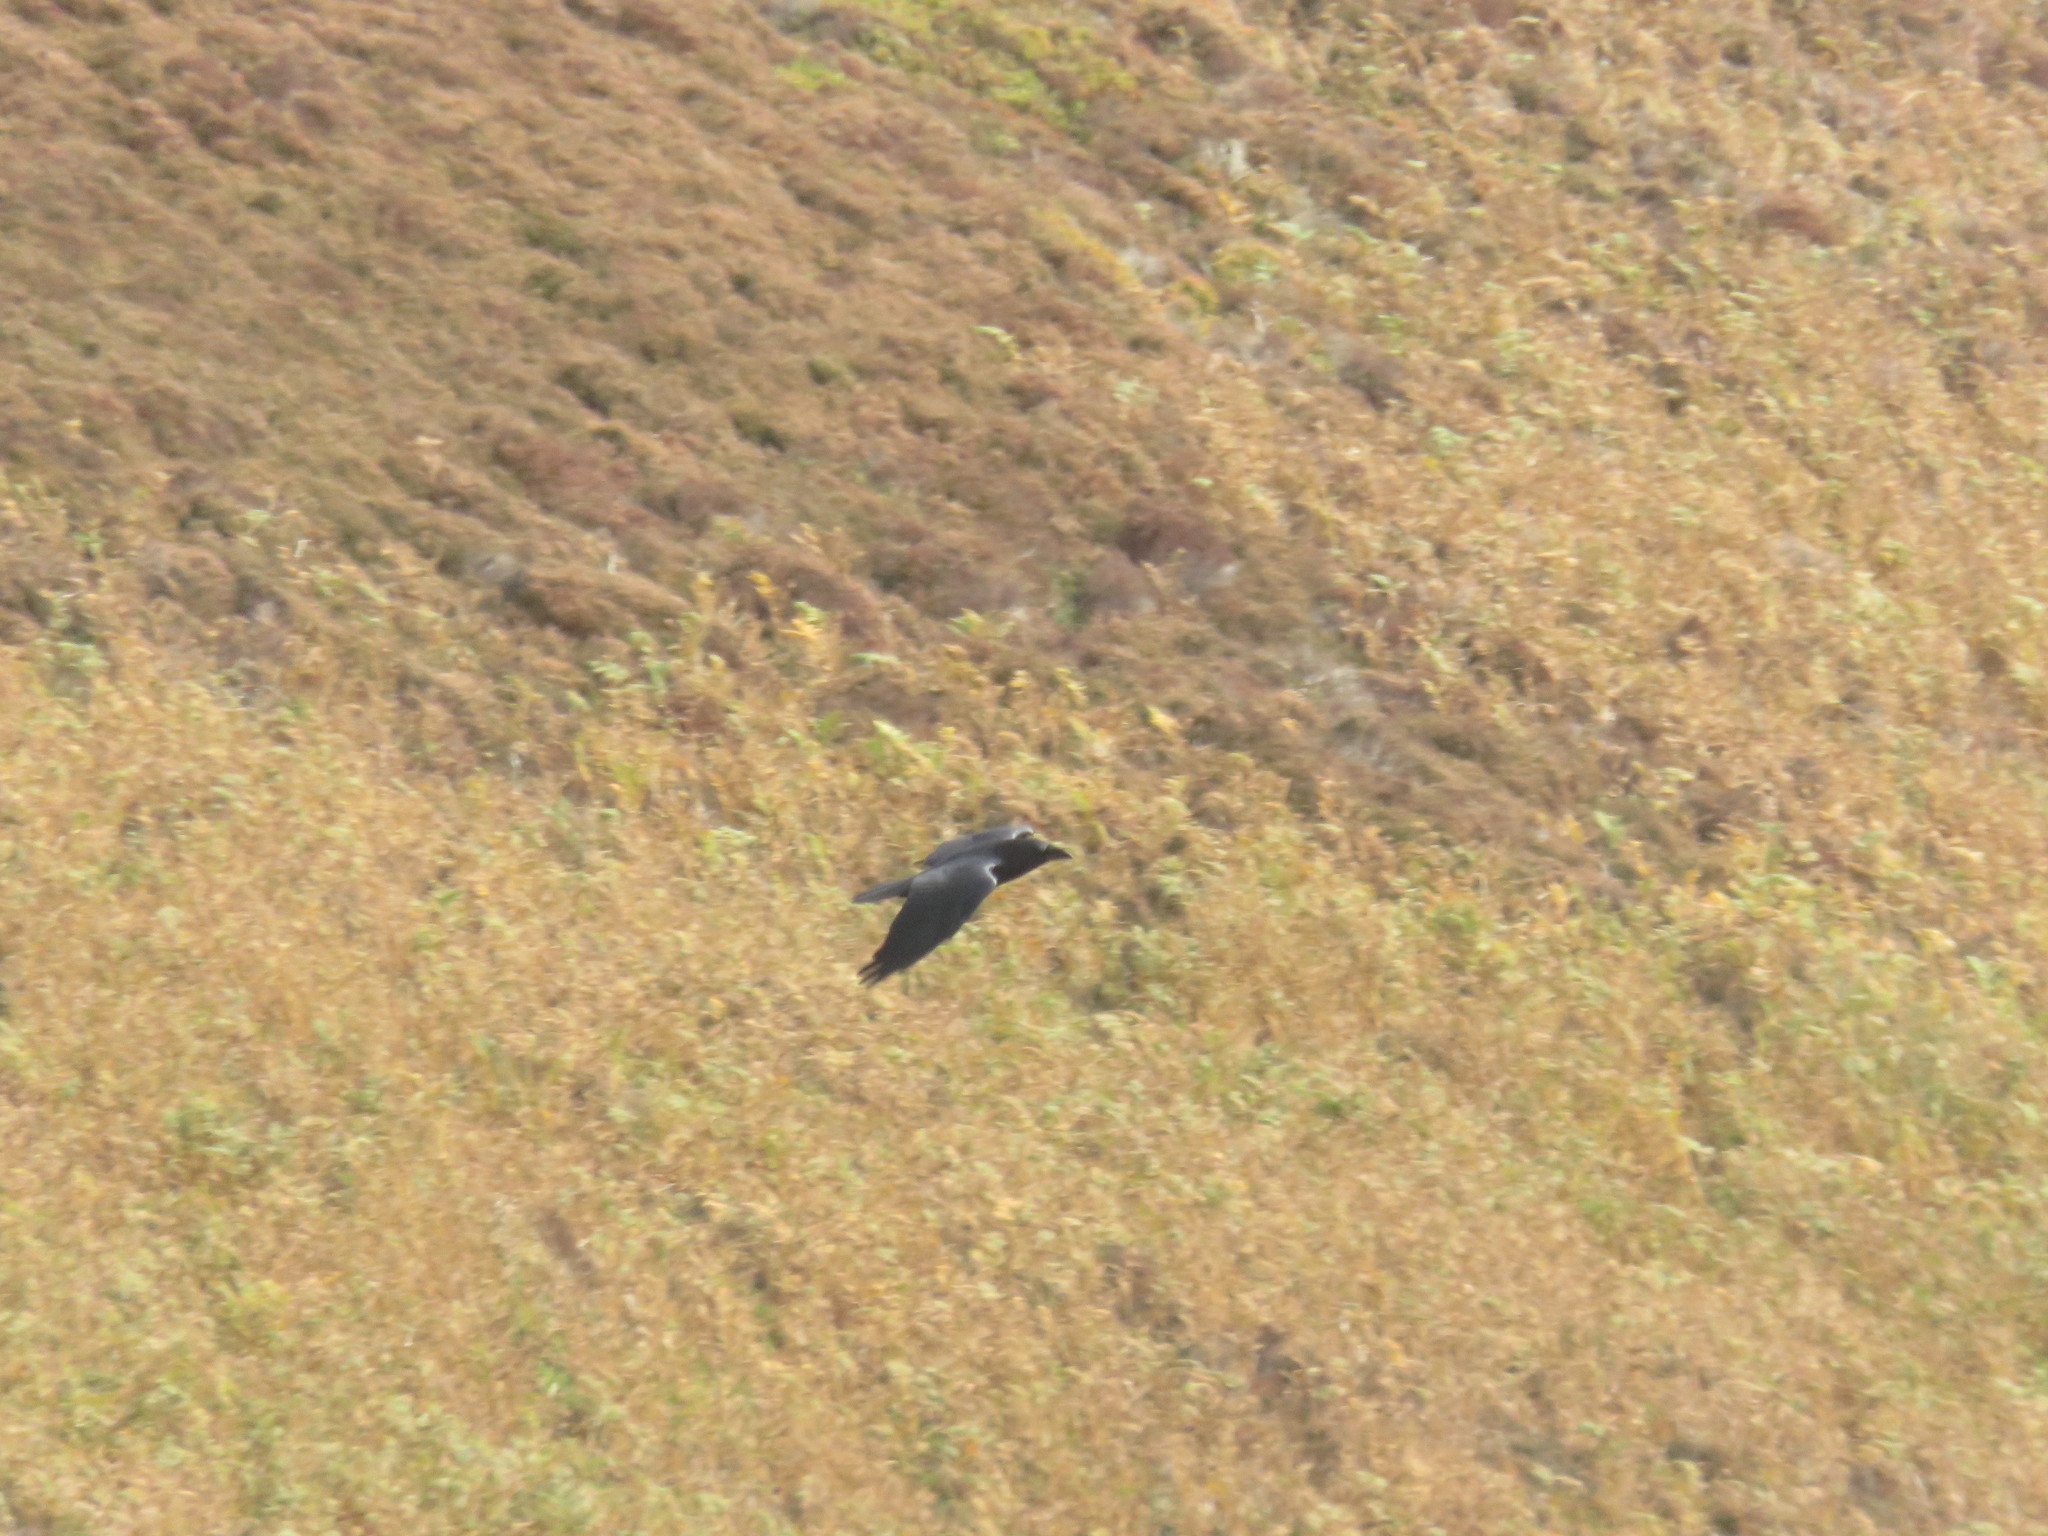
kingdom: Animalia
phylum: Chordata
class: Aves
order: Passeriformes
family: Corvidae
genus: Corvus
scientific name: Corvus corax
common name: Common raven
